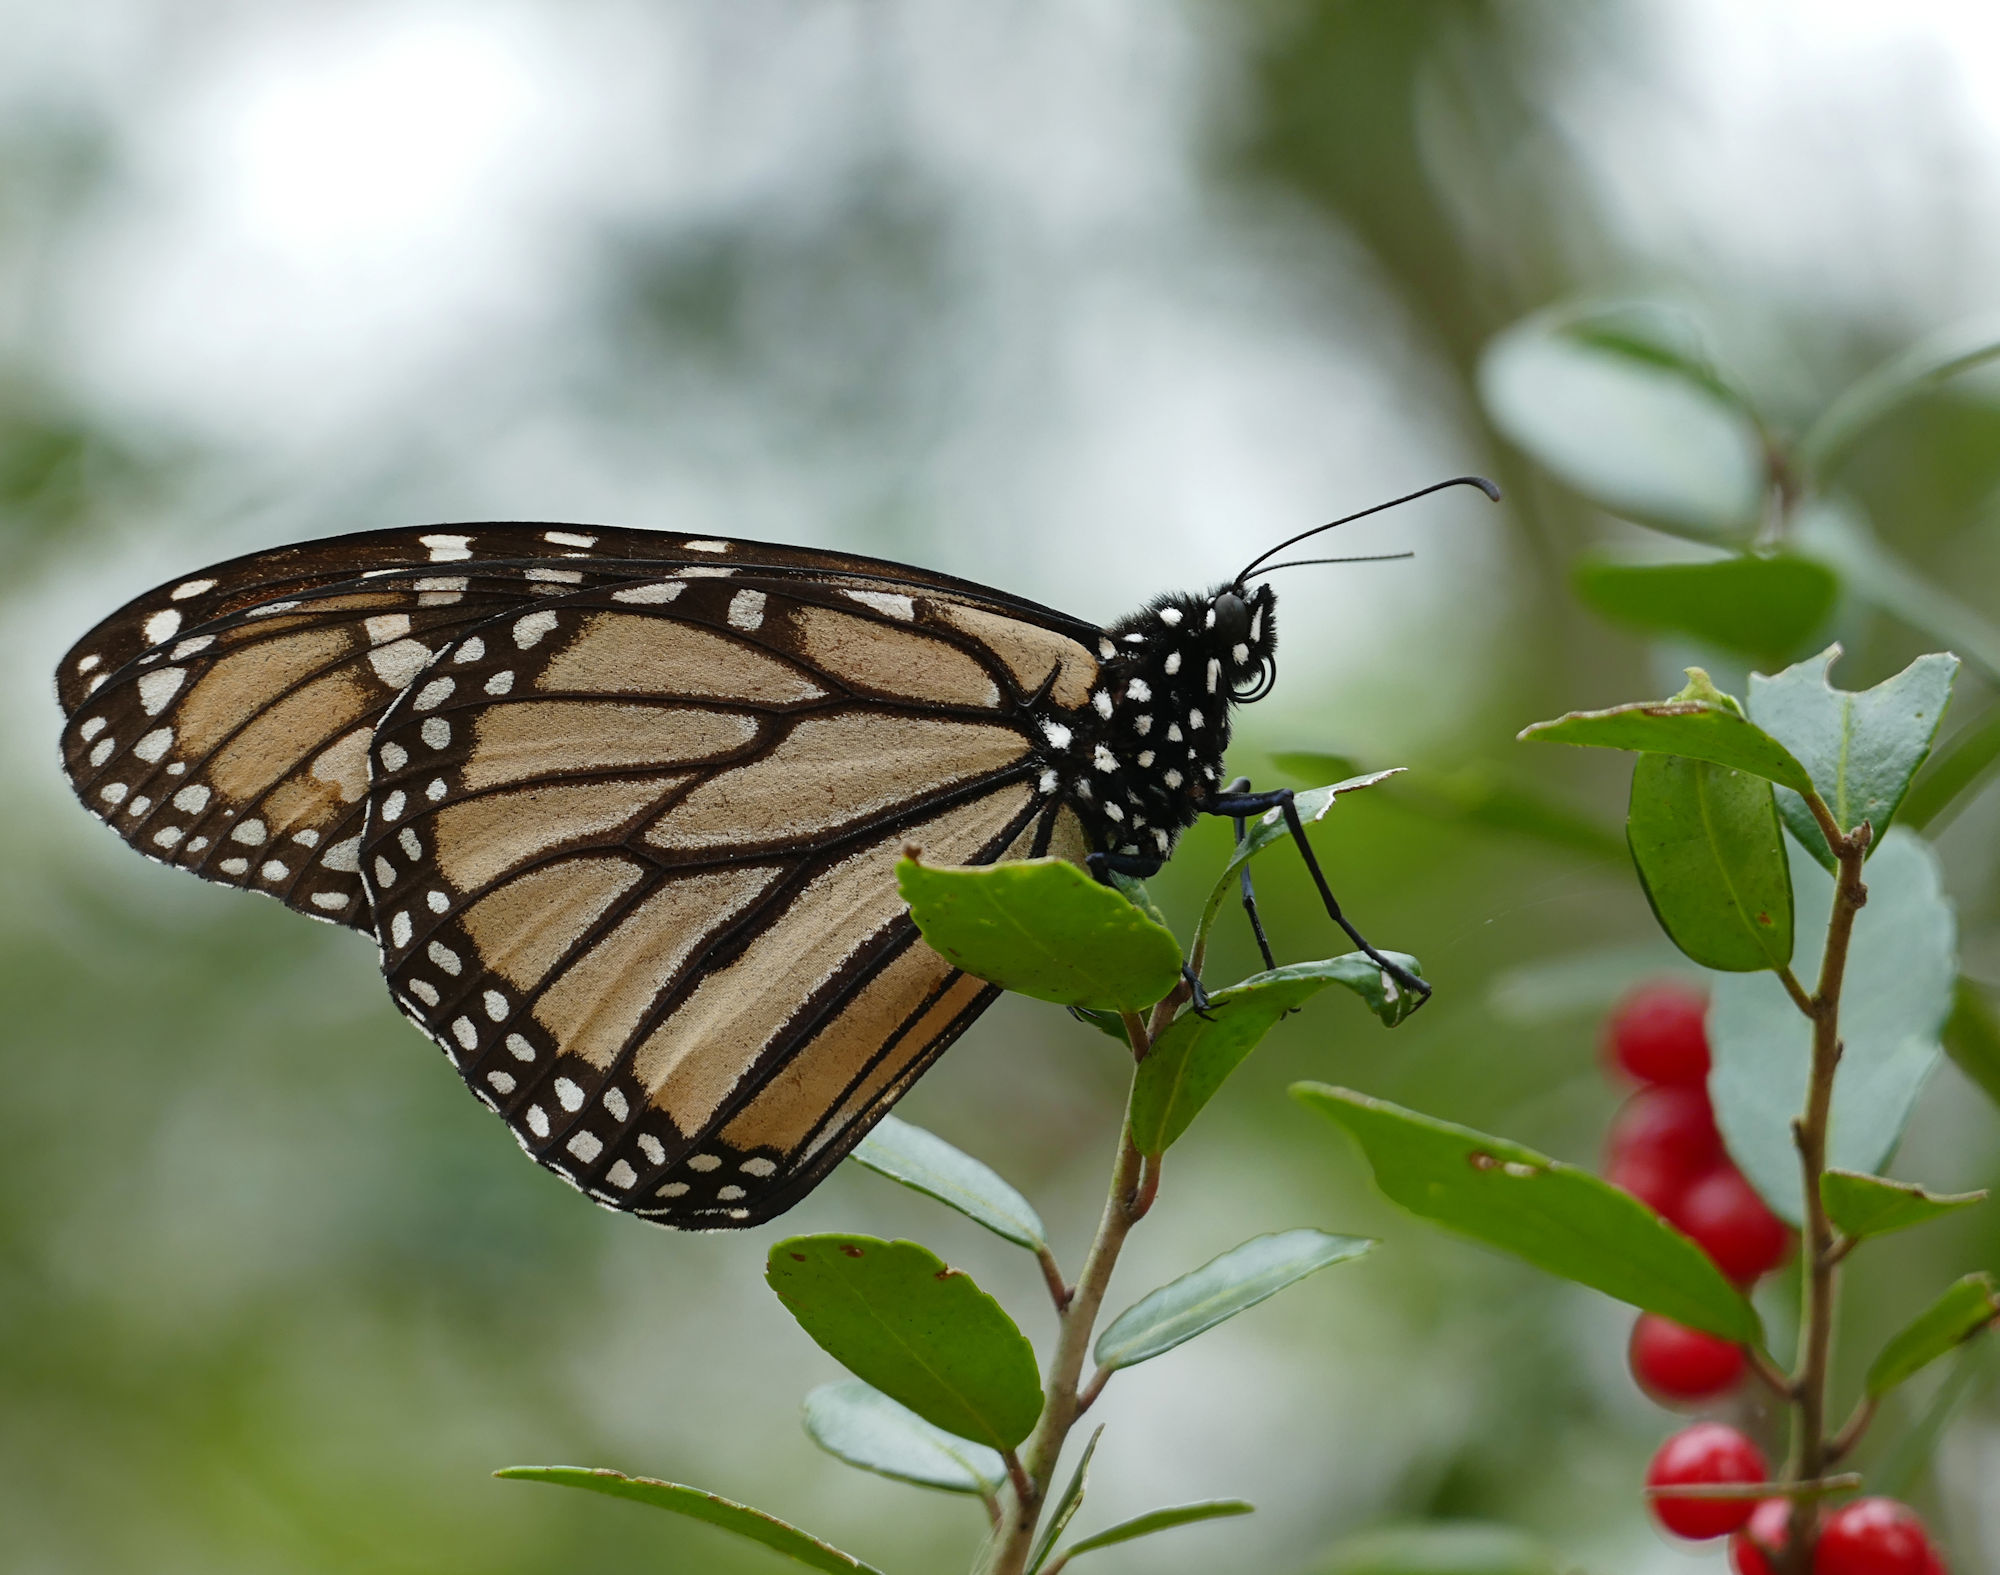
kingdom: Animalia
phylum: Arthropoda
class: Insecta
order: Lepidoptera
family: Nymphalidae
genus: Danaus
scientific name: Danaus plexippus
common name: Monarch
